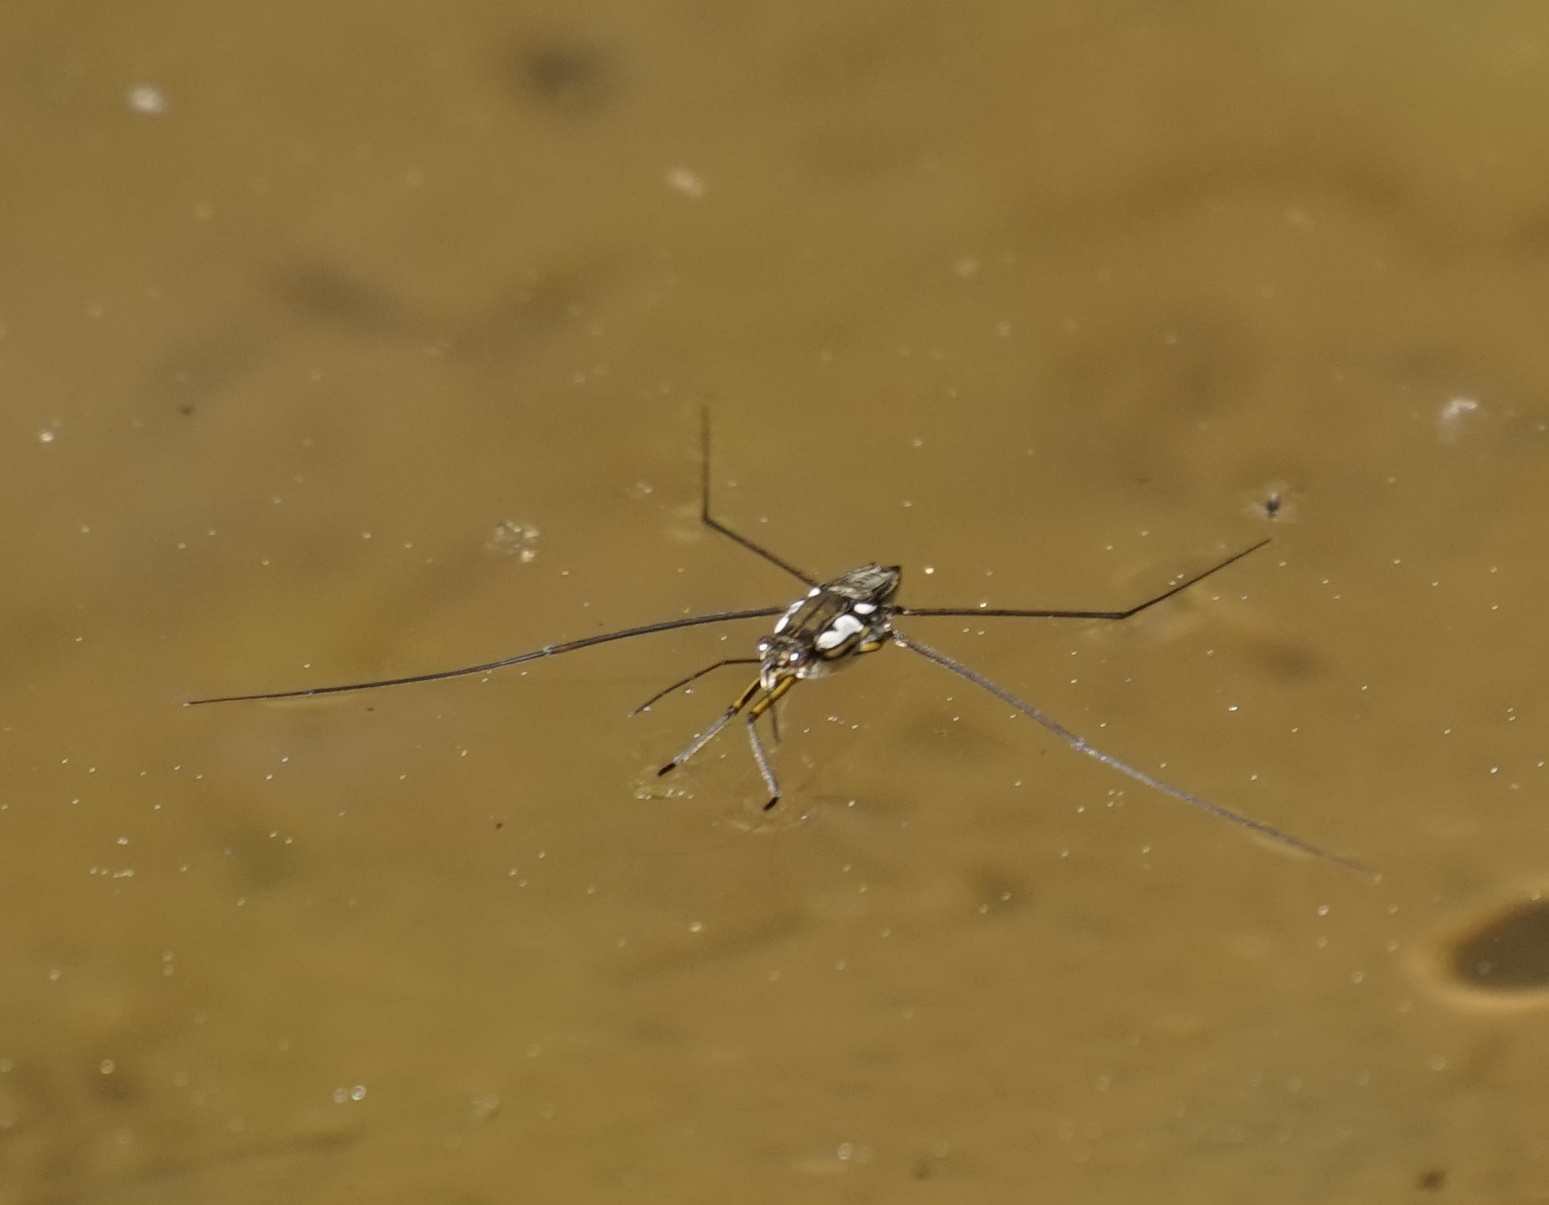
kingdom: Animalia
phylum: Arthropoda
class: Insecta
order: Hemiptera
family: Gerridae
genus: Tenagogerris
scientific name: Tenagogerris euphrosyne
